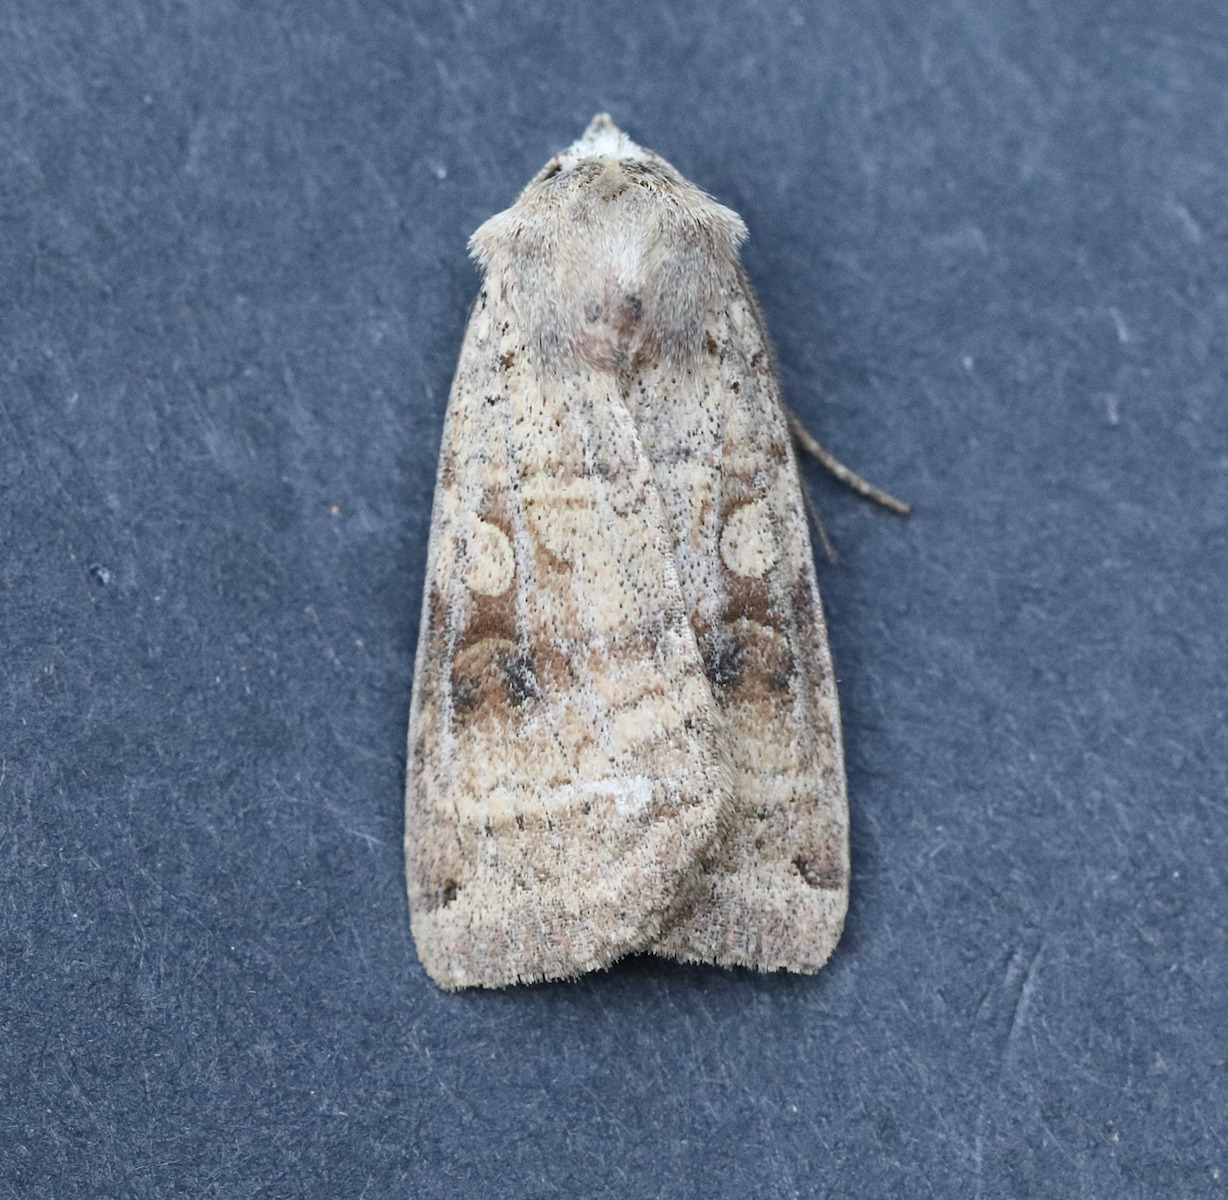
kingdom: Animalia
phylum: Arthropoda
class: Insecta
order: Lepidoptera
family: Noctuidae
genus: Xestia
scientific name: Xestia smithii
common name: Smith's dart
